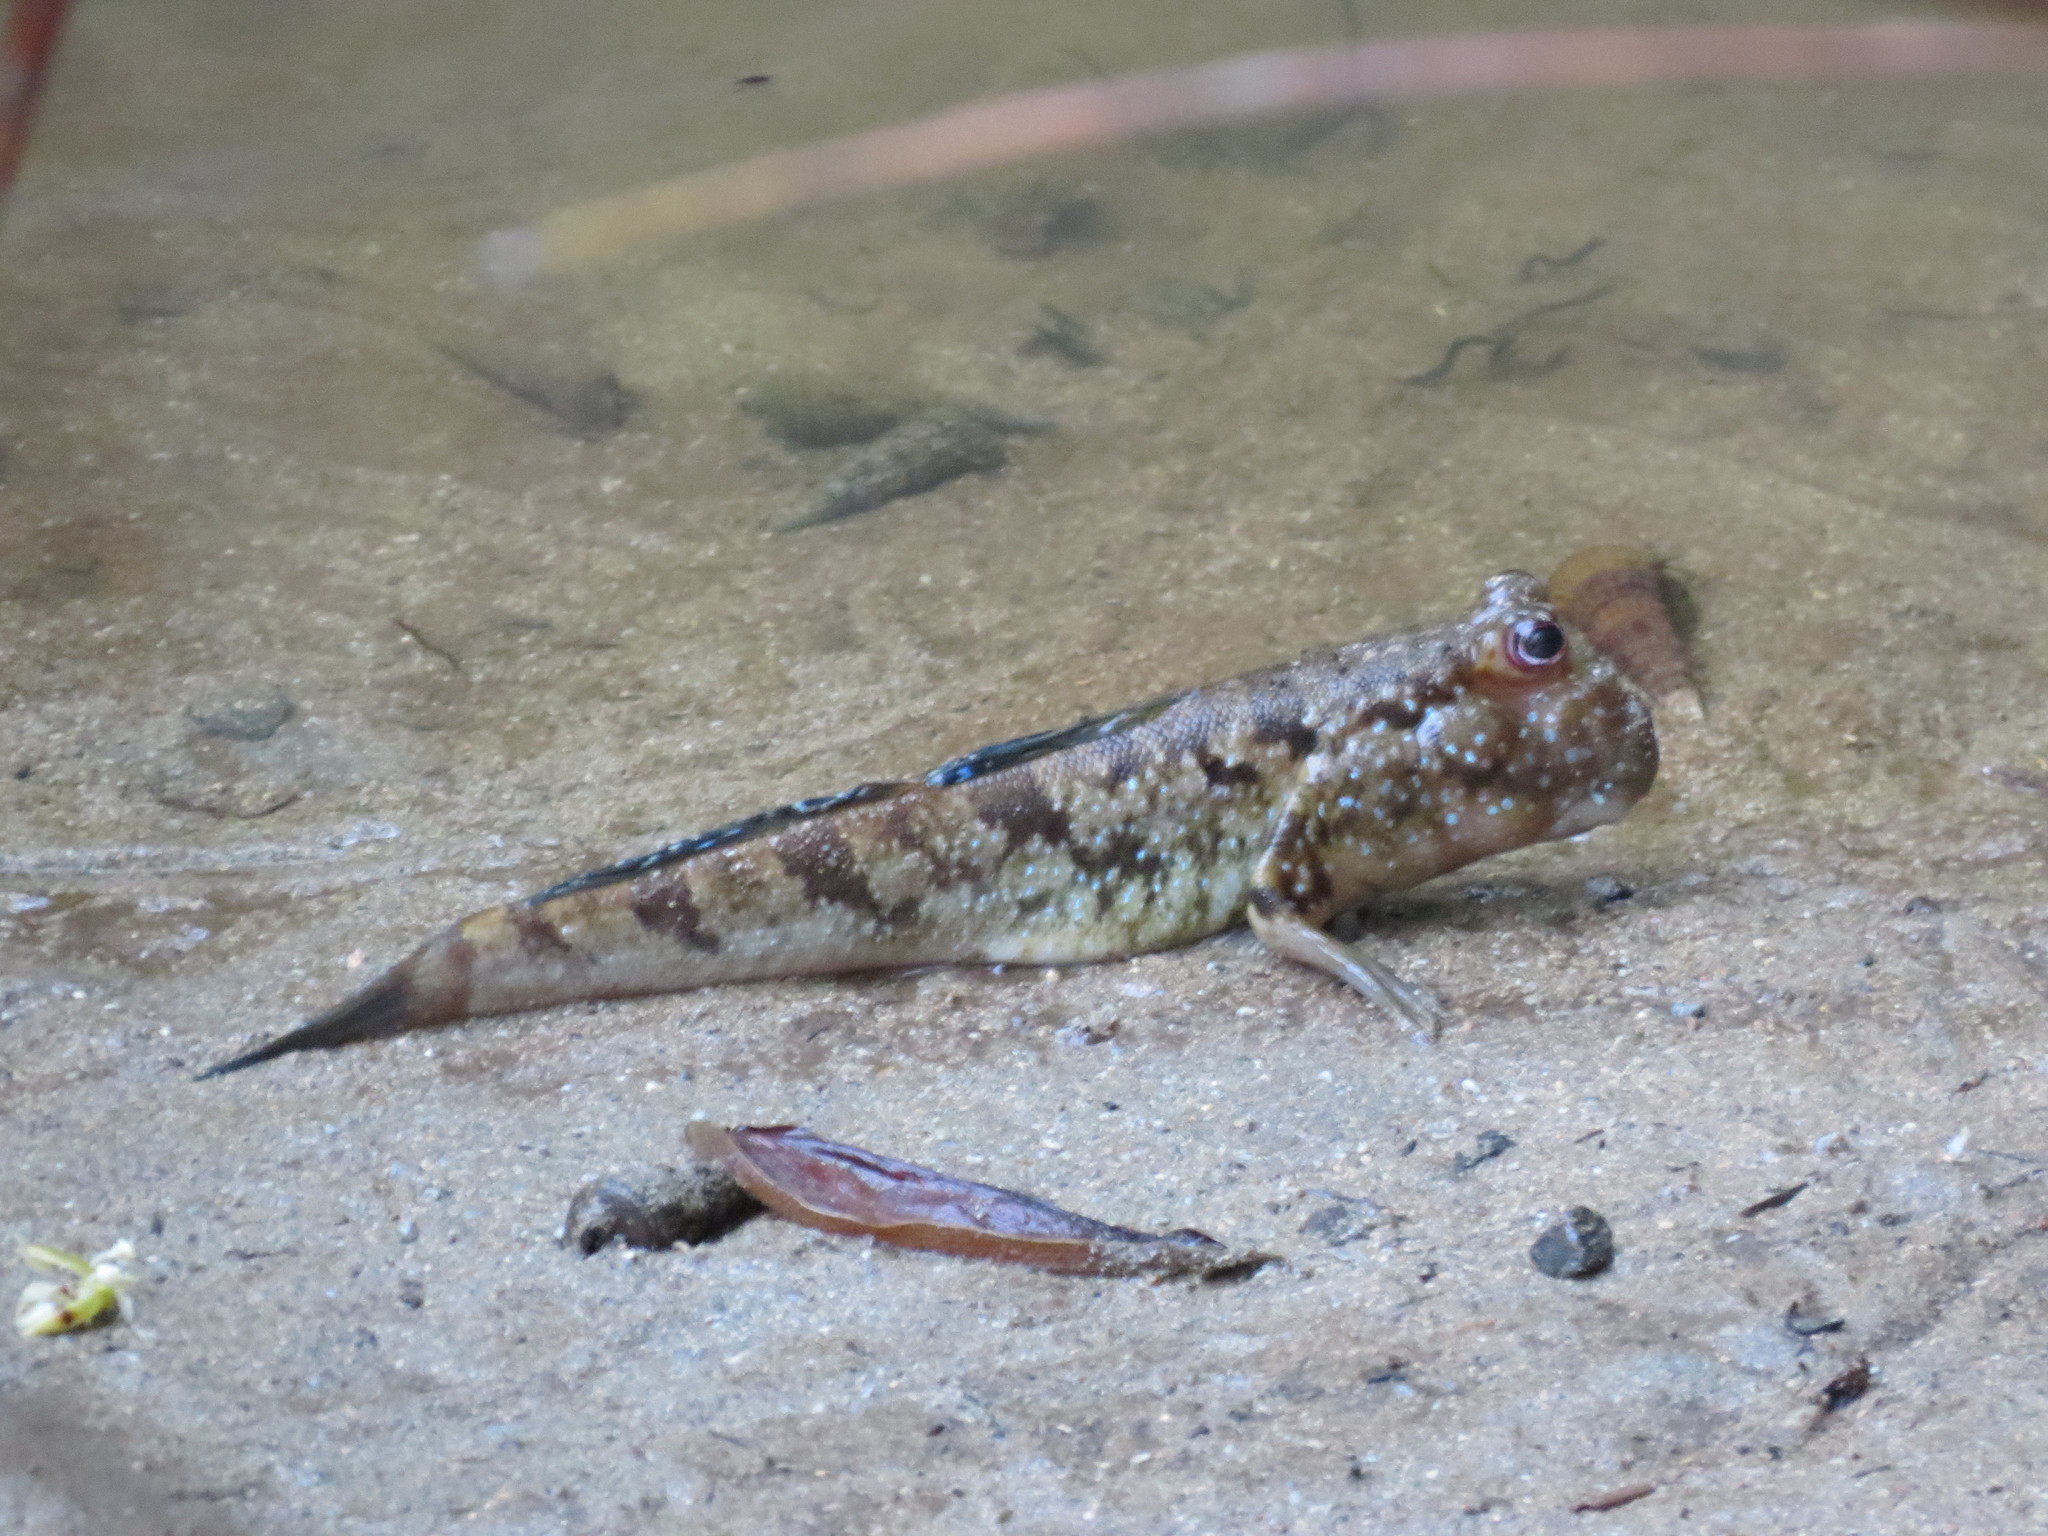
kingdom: Animalia
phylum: Chordata
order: Perciformes
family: Gobiidae
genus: Periophthalmus
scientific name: Periophthalmus barbarus
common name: Atlantic mudskipper
